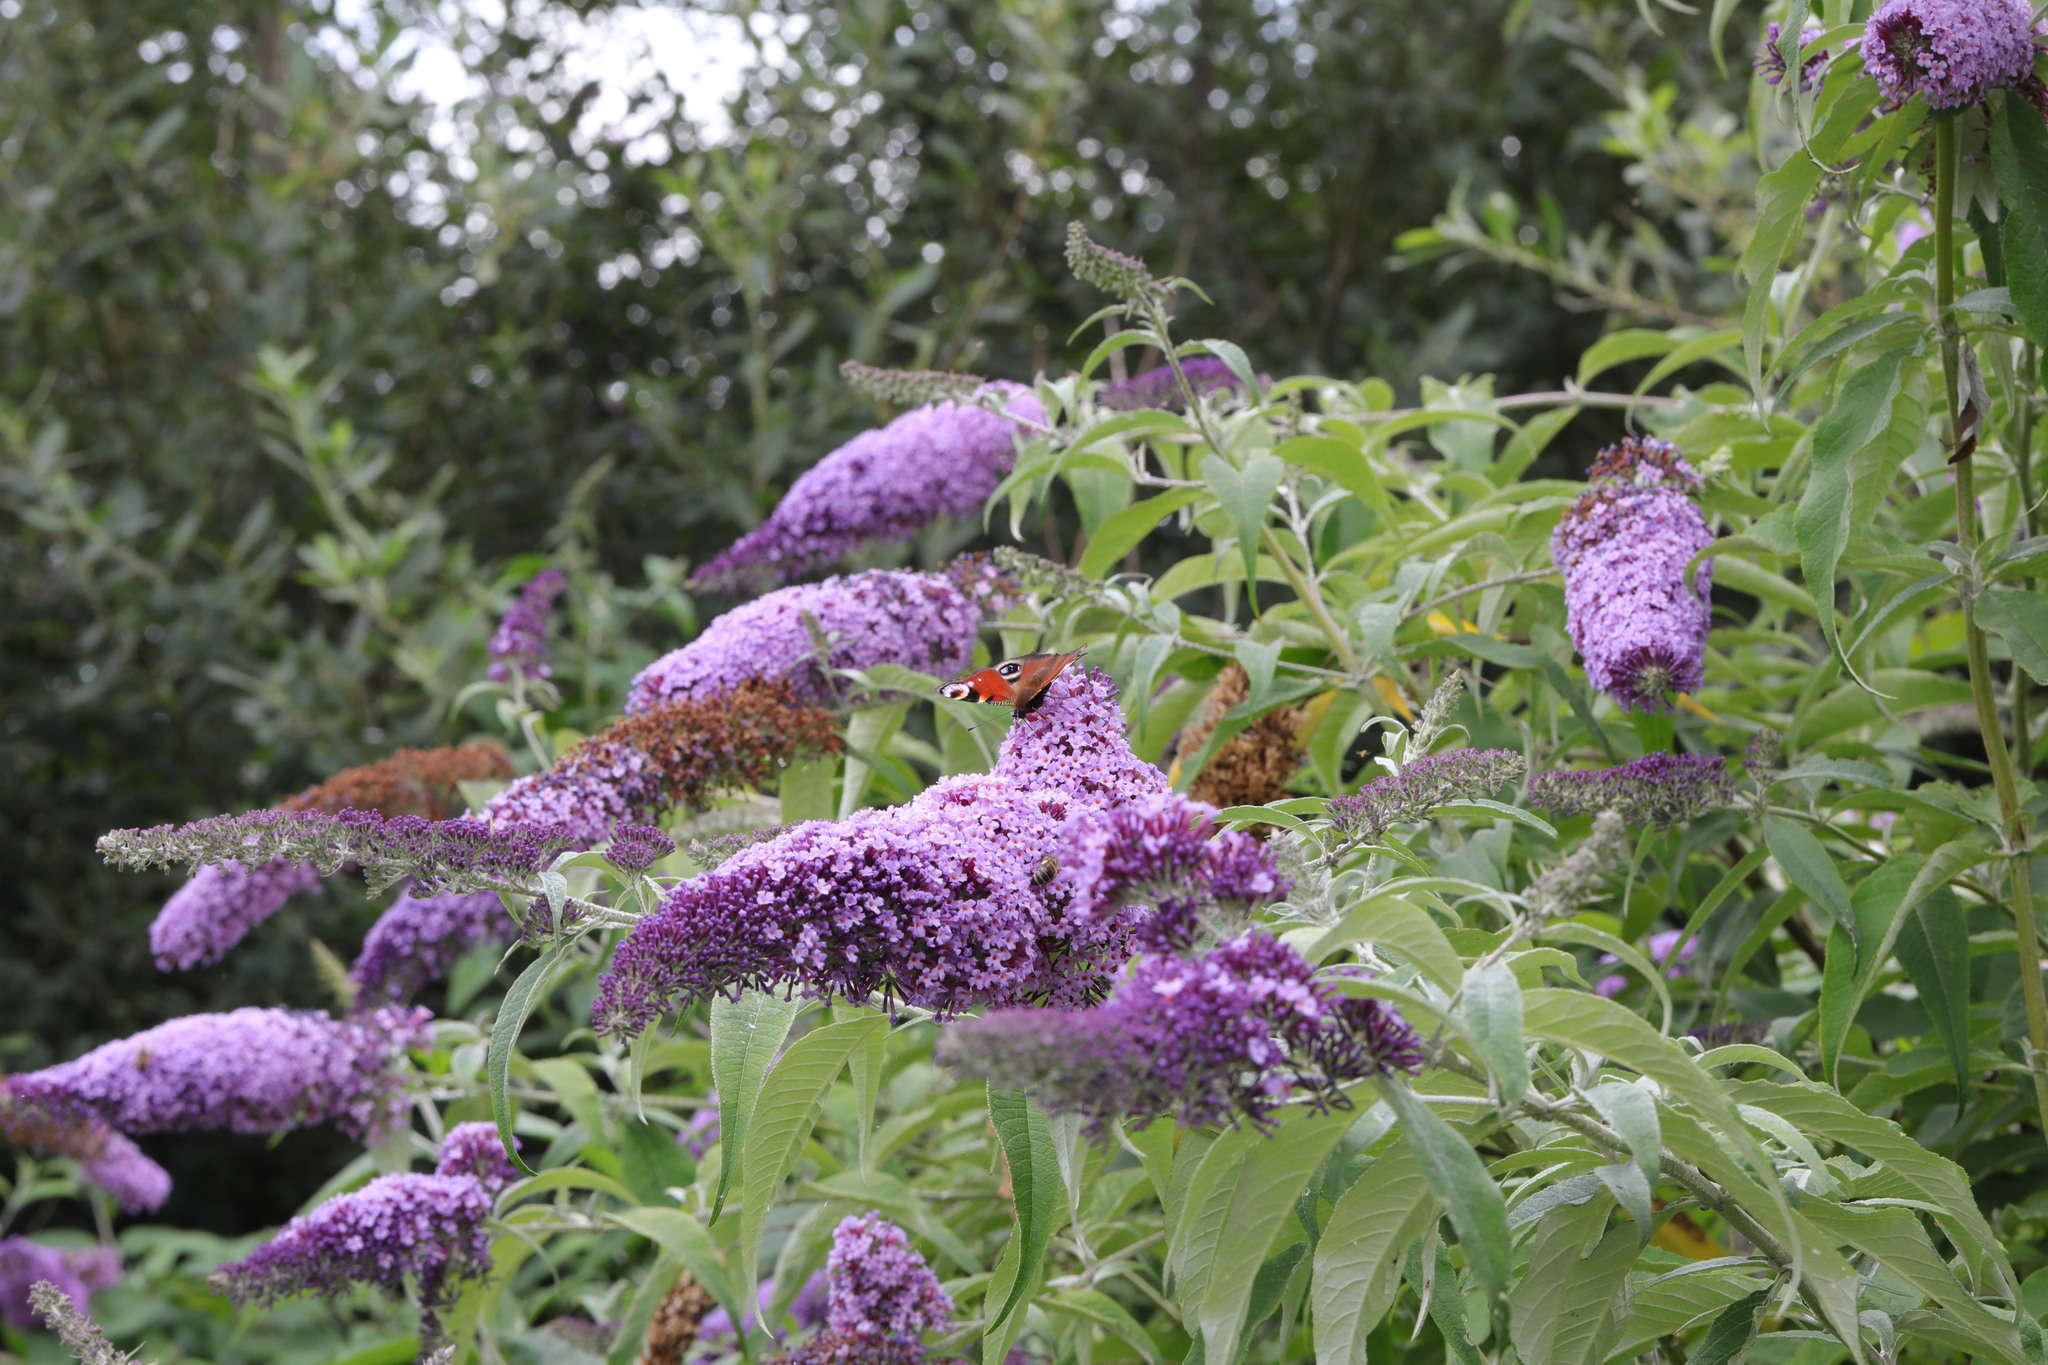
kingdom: Plantae
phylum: Tracheophyta
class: Magnoliopsida
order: Lamiales
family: Scrophulariaceae
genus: Buddleja
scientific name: Buddleja davidii
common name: Butterfly-bush
